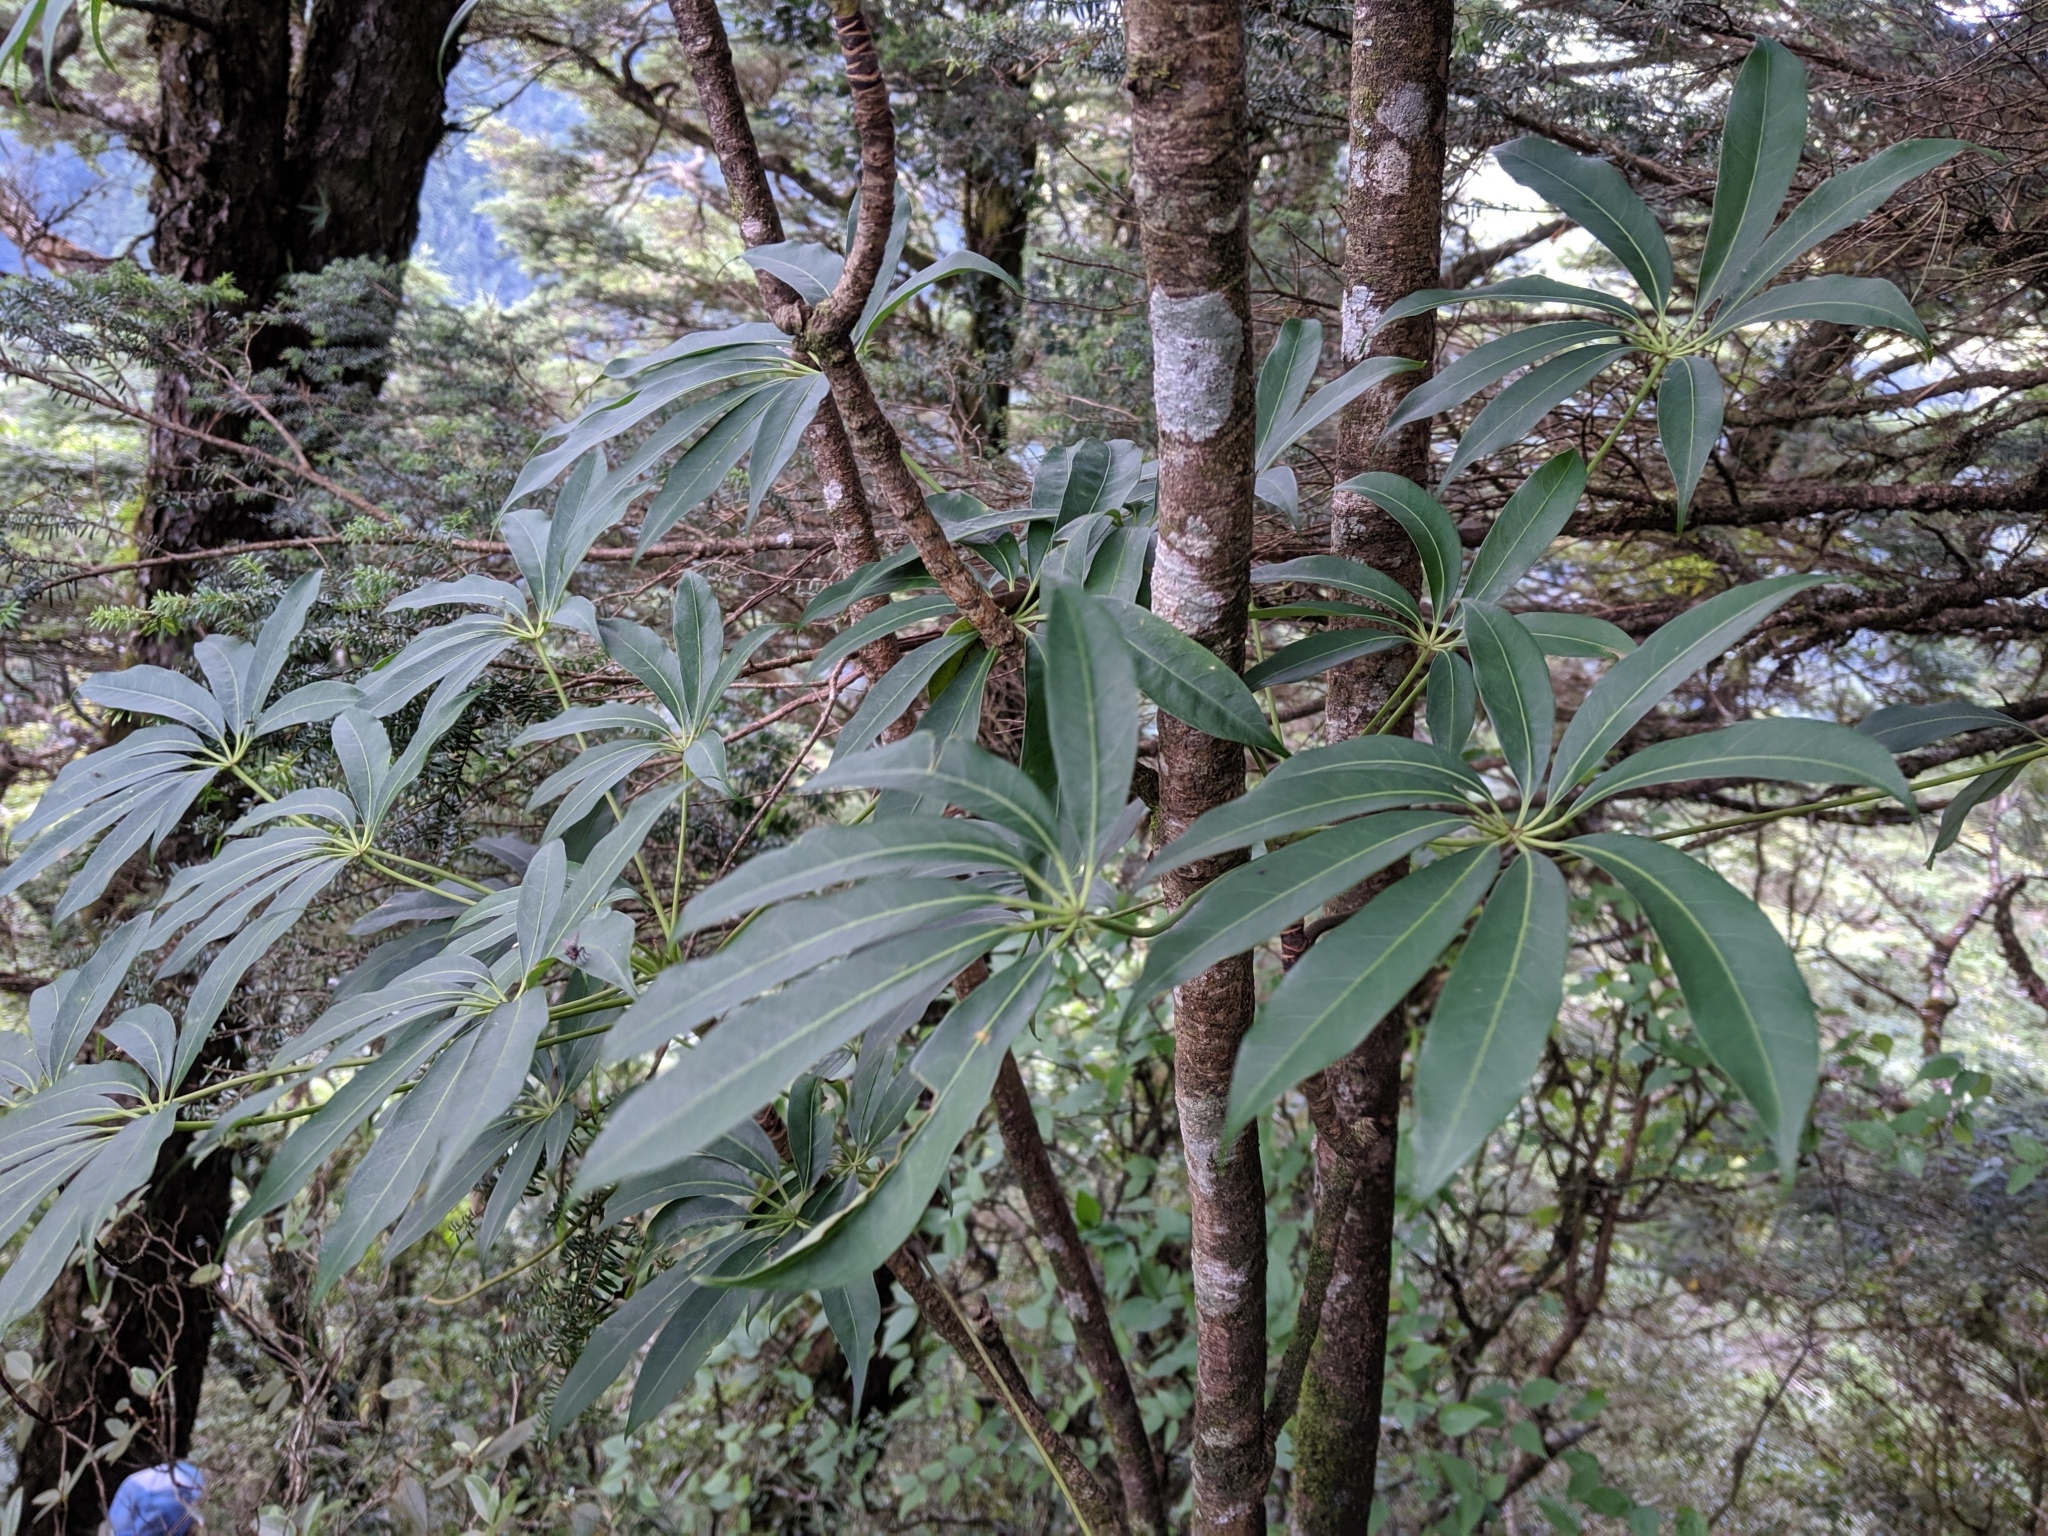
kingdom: Plantae
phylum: Tracheophyta
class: Magnoliopsida
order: Apiales
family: Araliaceae
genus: Heptapleurum
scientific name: Heptapleurum taiwanianum
